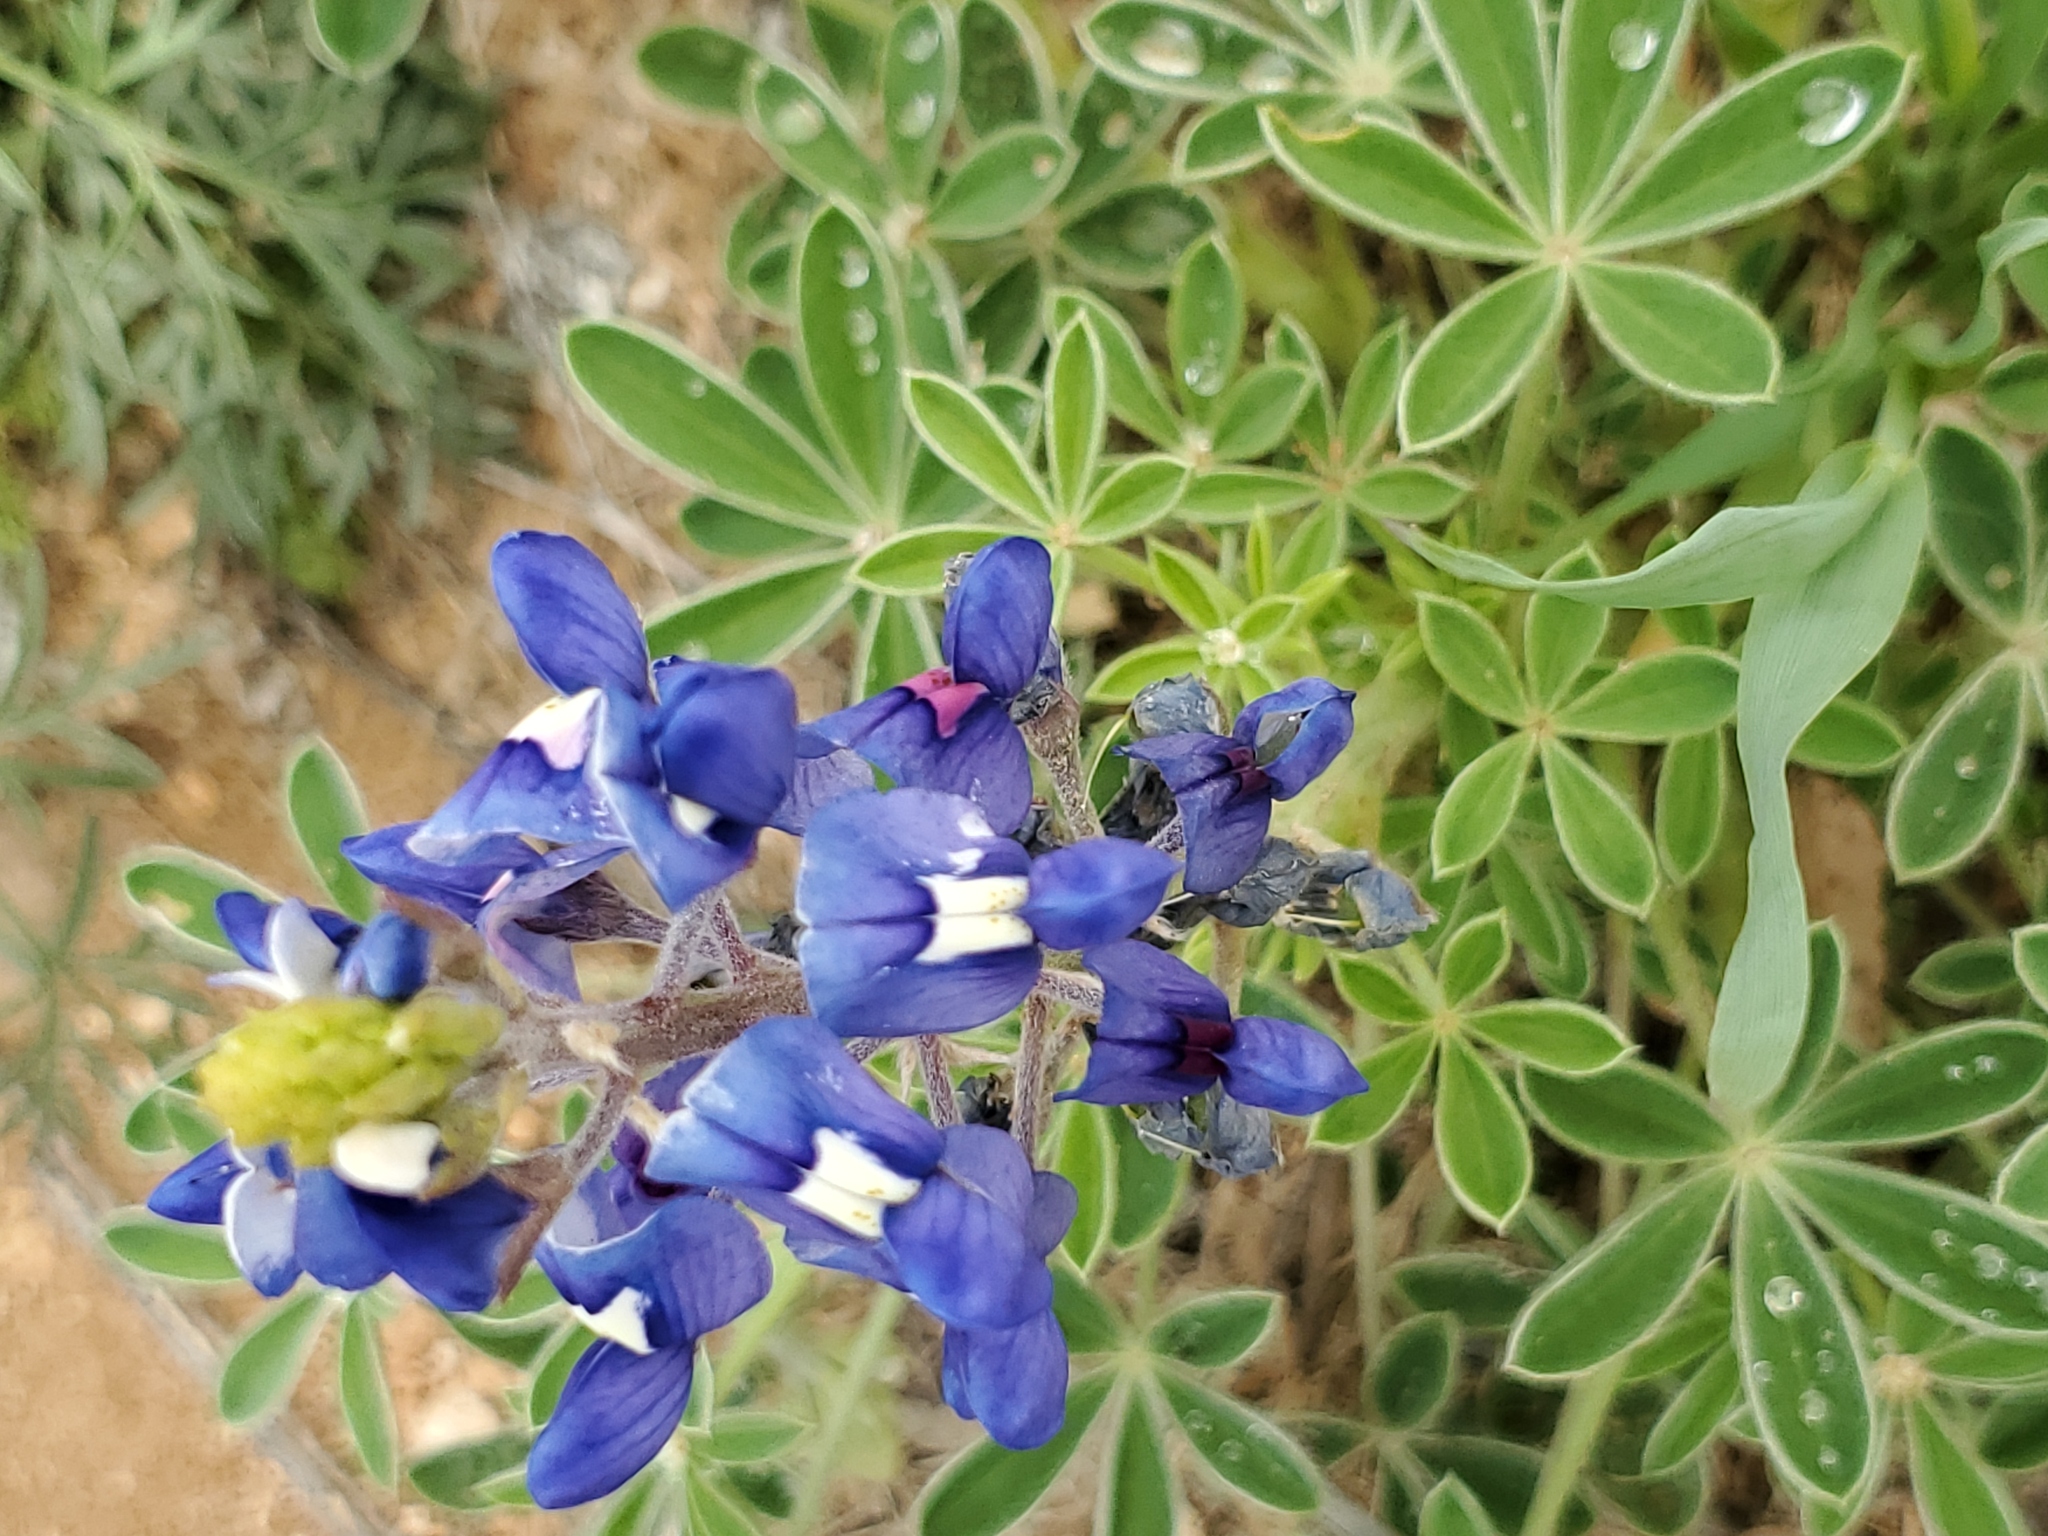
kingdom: Plantae
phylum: Tracheophyta
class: Magnoliopsida
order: Fabales
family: Fabaceae
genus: Lupinus
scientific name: Lupinus texensis
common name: Texas bluebonnet
